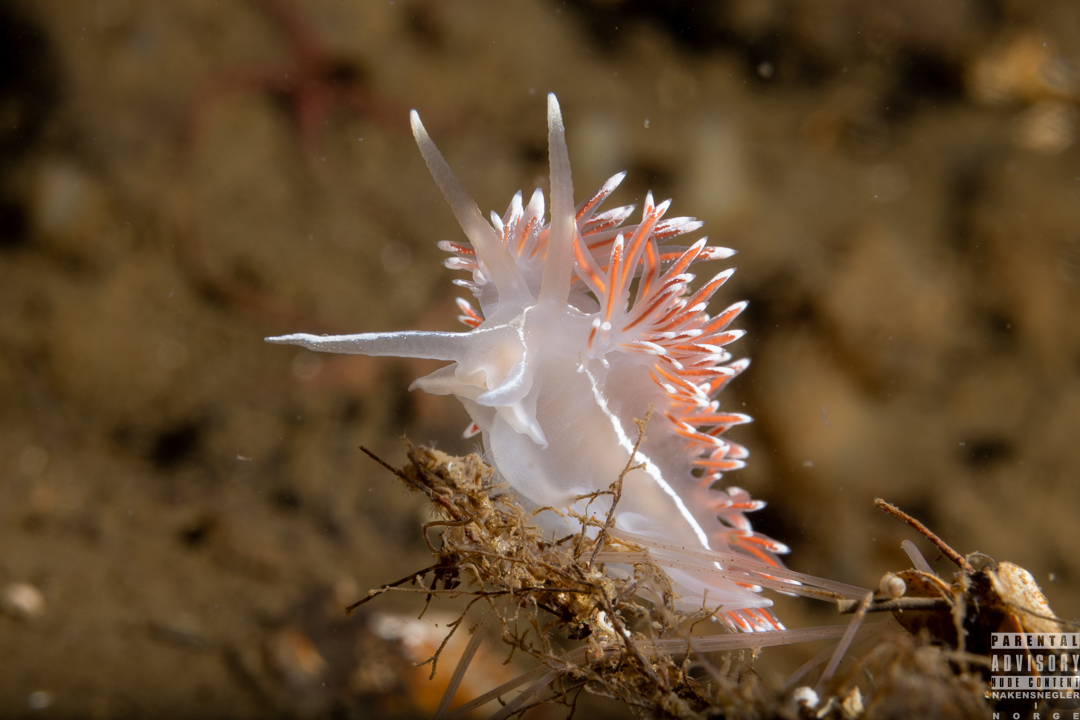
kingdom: Animalia
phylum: Mollusca
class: Gastropoda
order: Nudibranchia
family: Coryphellidae
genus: Coryphella
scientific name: Coryphella lineata
